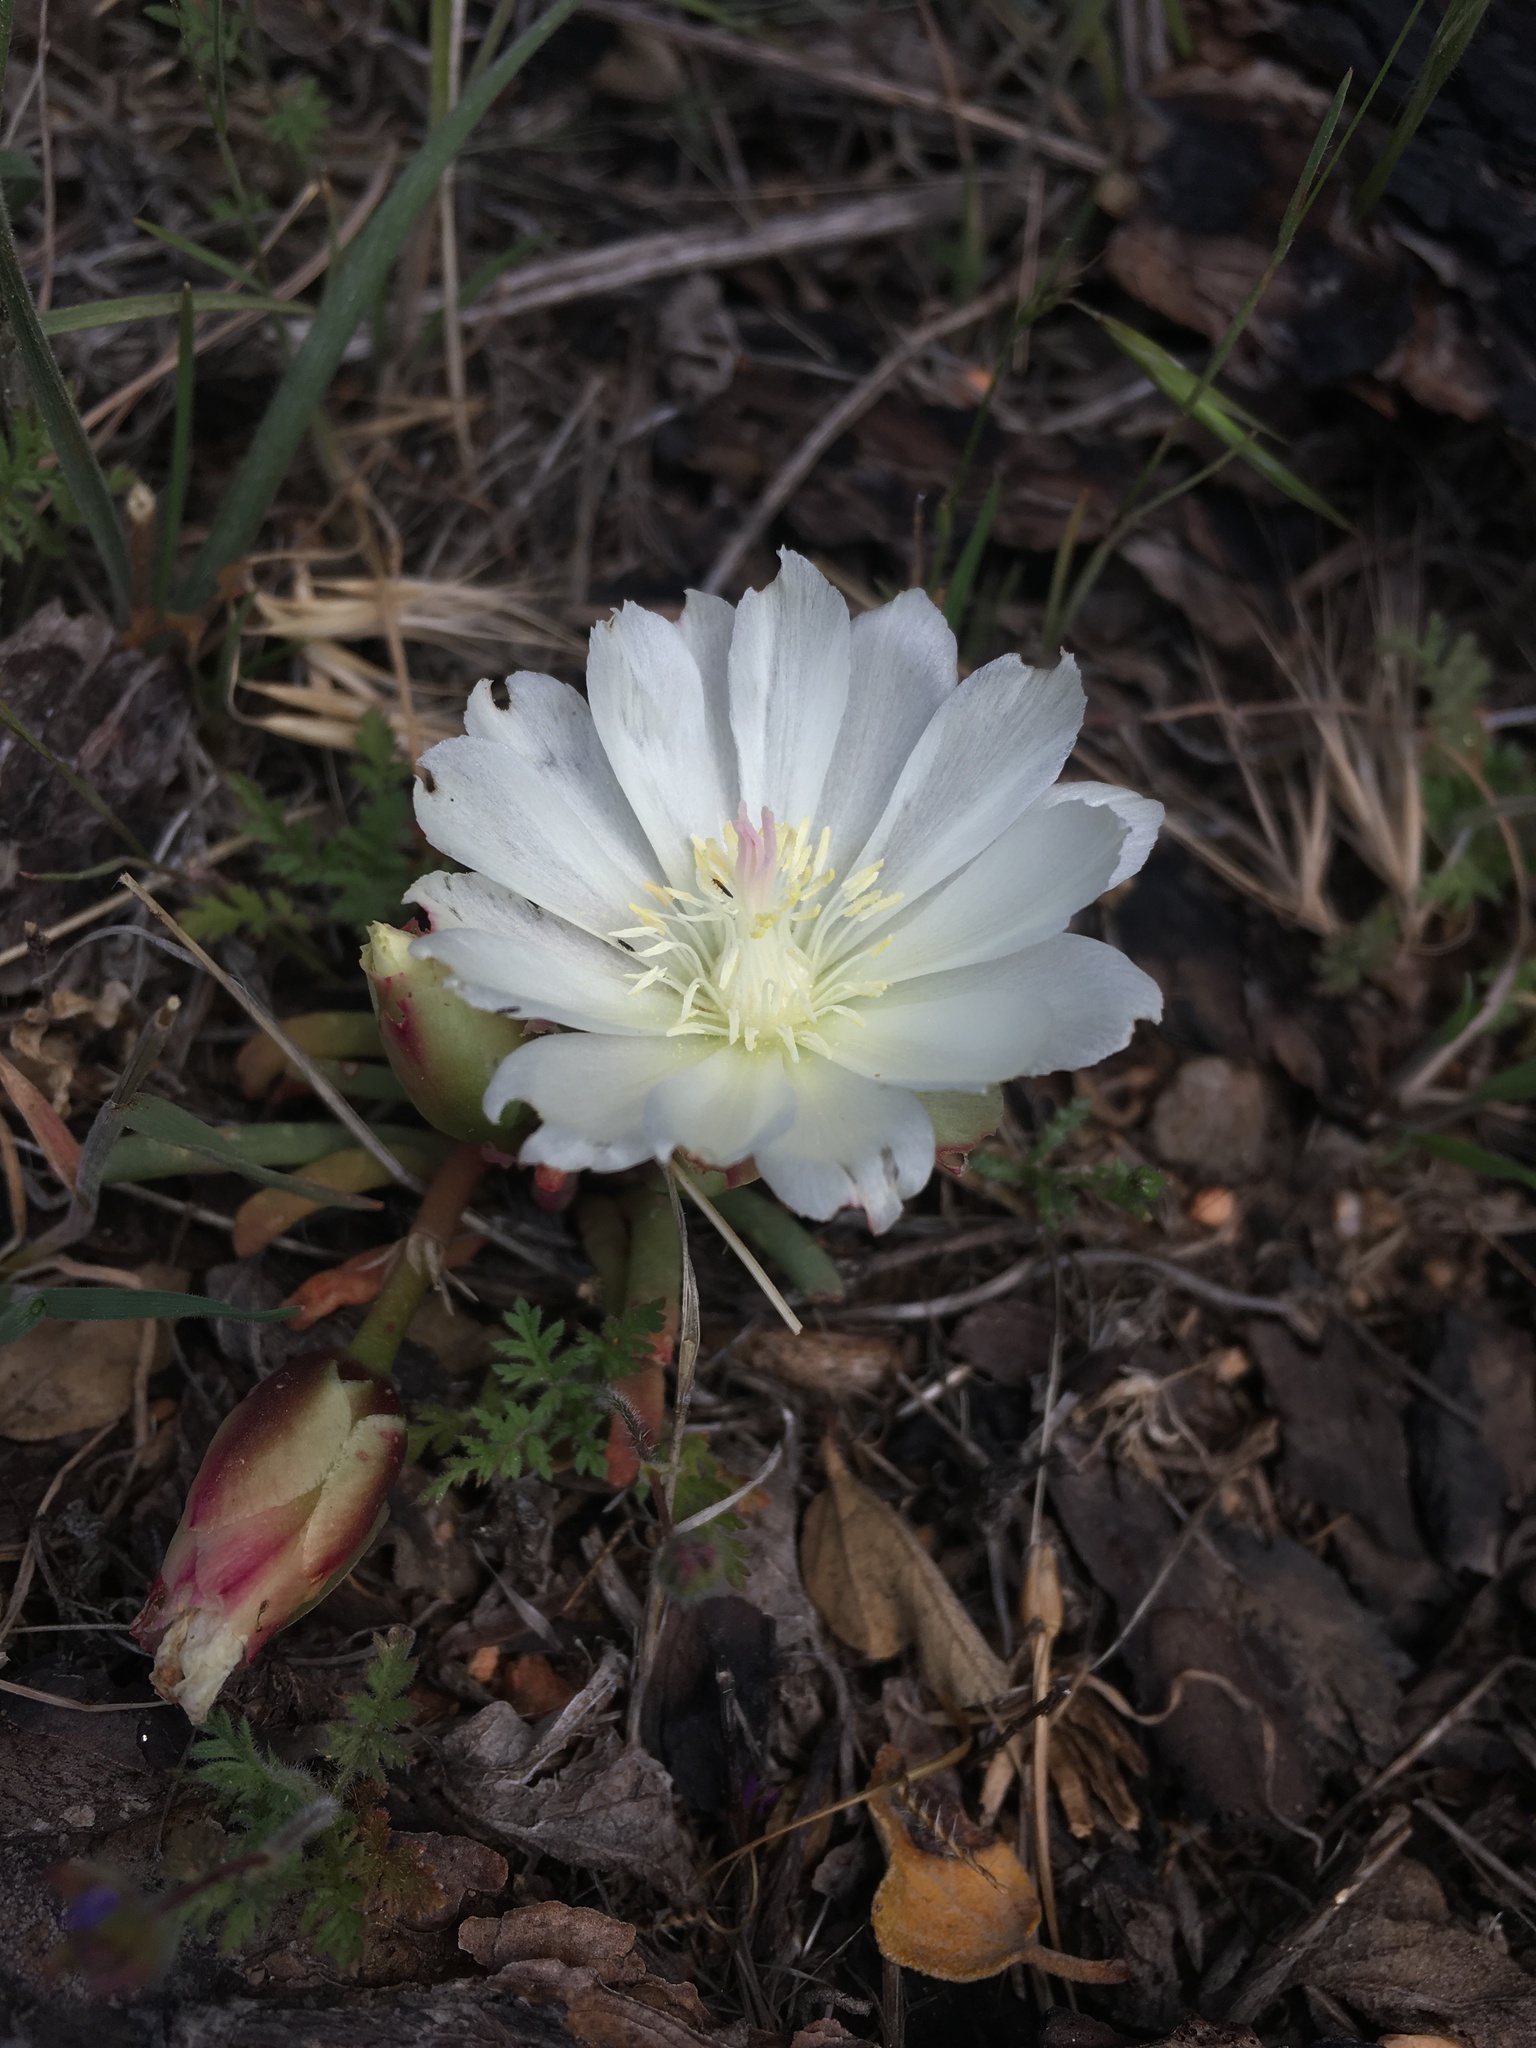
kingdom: Plantae
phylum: Tracheophyta
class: Magnoliopsida
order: Caryophyllales
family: Montiaceae
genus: Lewisia
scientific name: Lewisia rediviva
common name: Bitter-root
